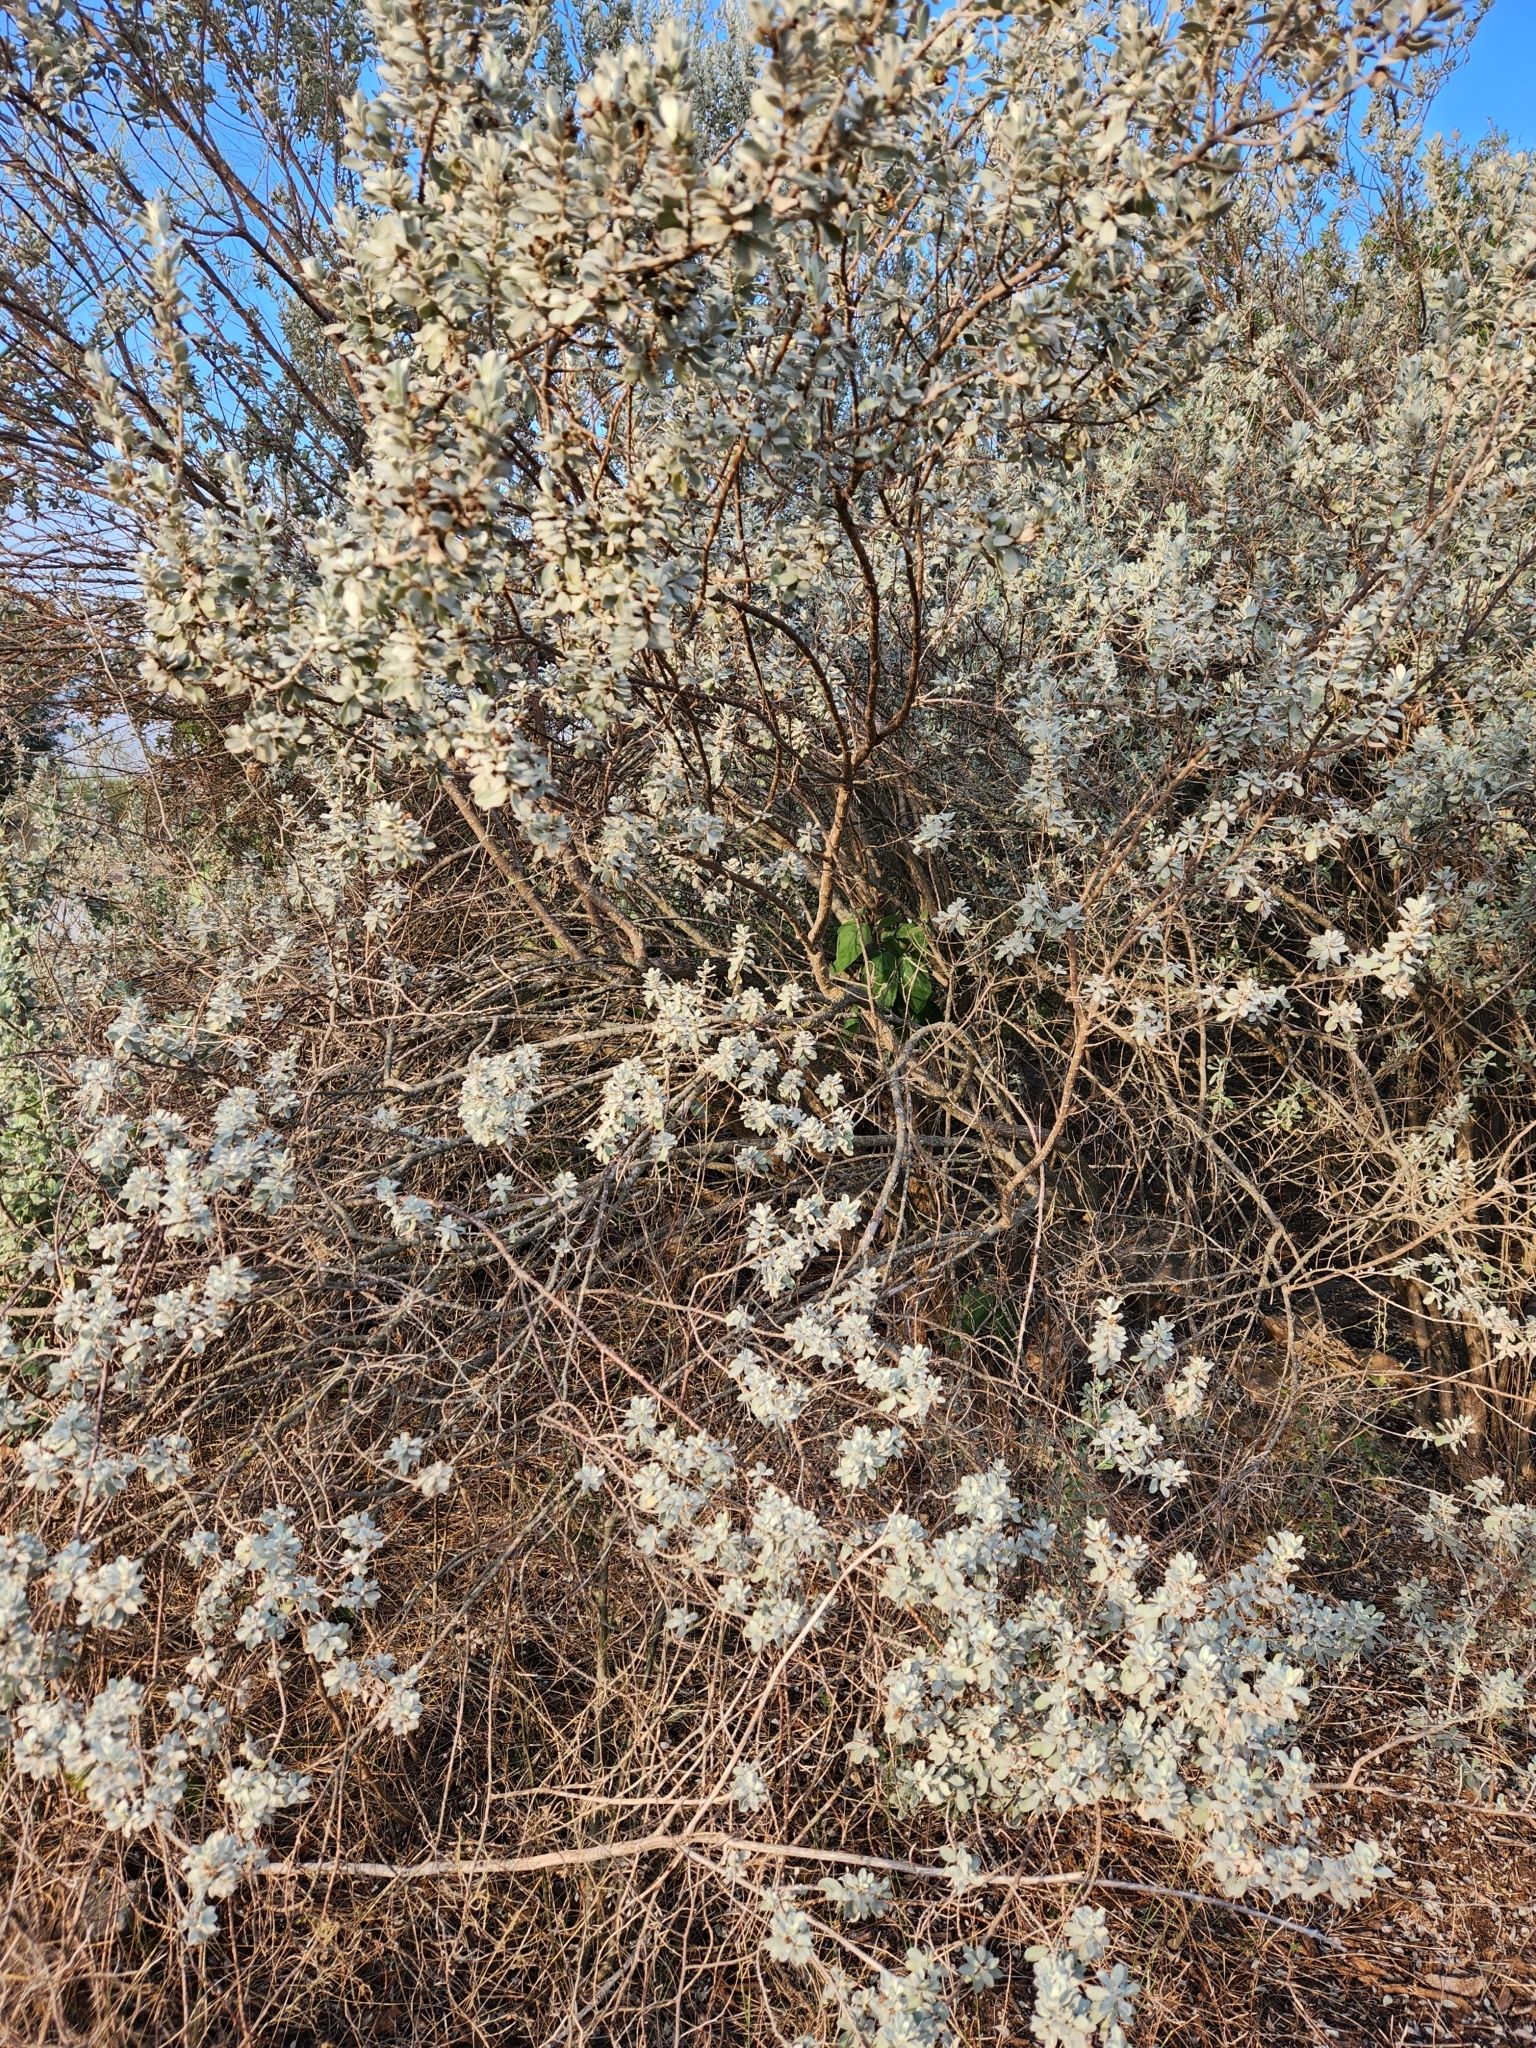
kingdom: Plantae
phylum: Tracheophyta
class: Magnoliopsida
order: Lamiales
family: Scrophulariaceae
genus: Leucophyllum
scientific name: Leucophyllum frutescens
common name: Texas silverleaf
